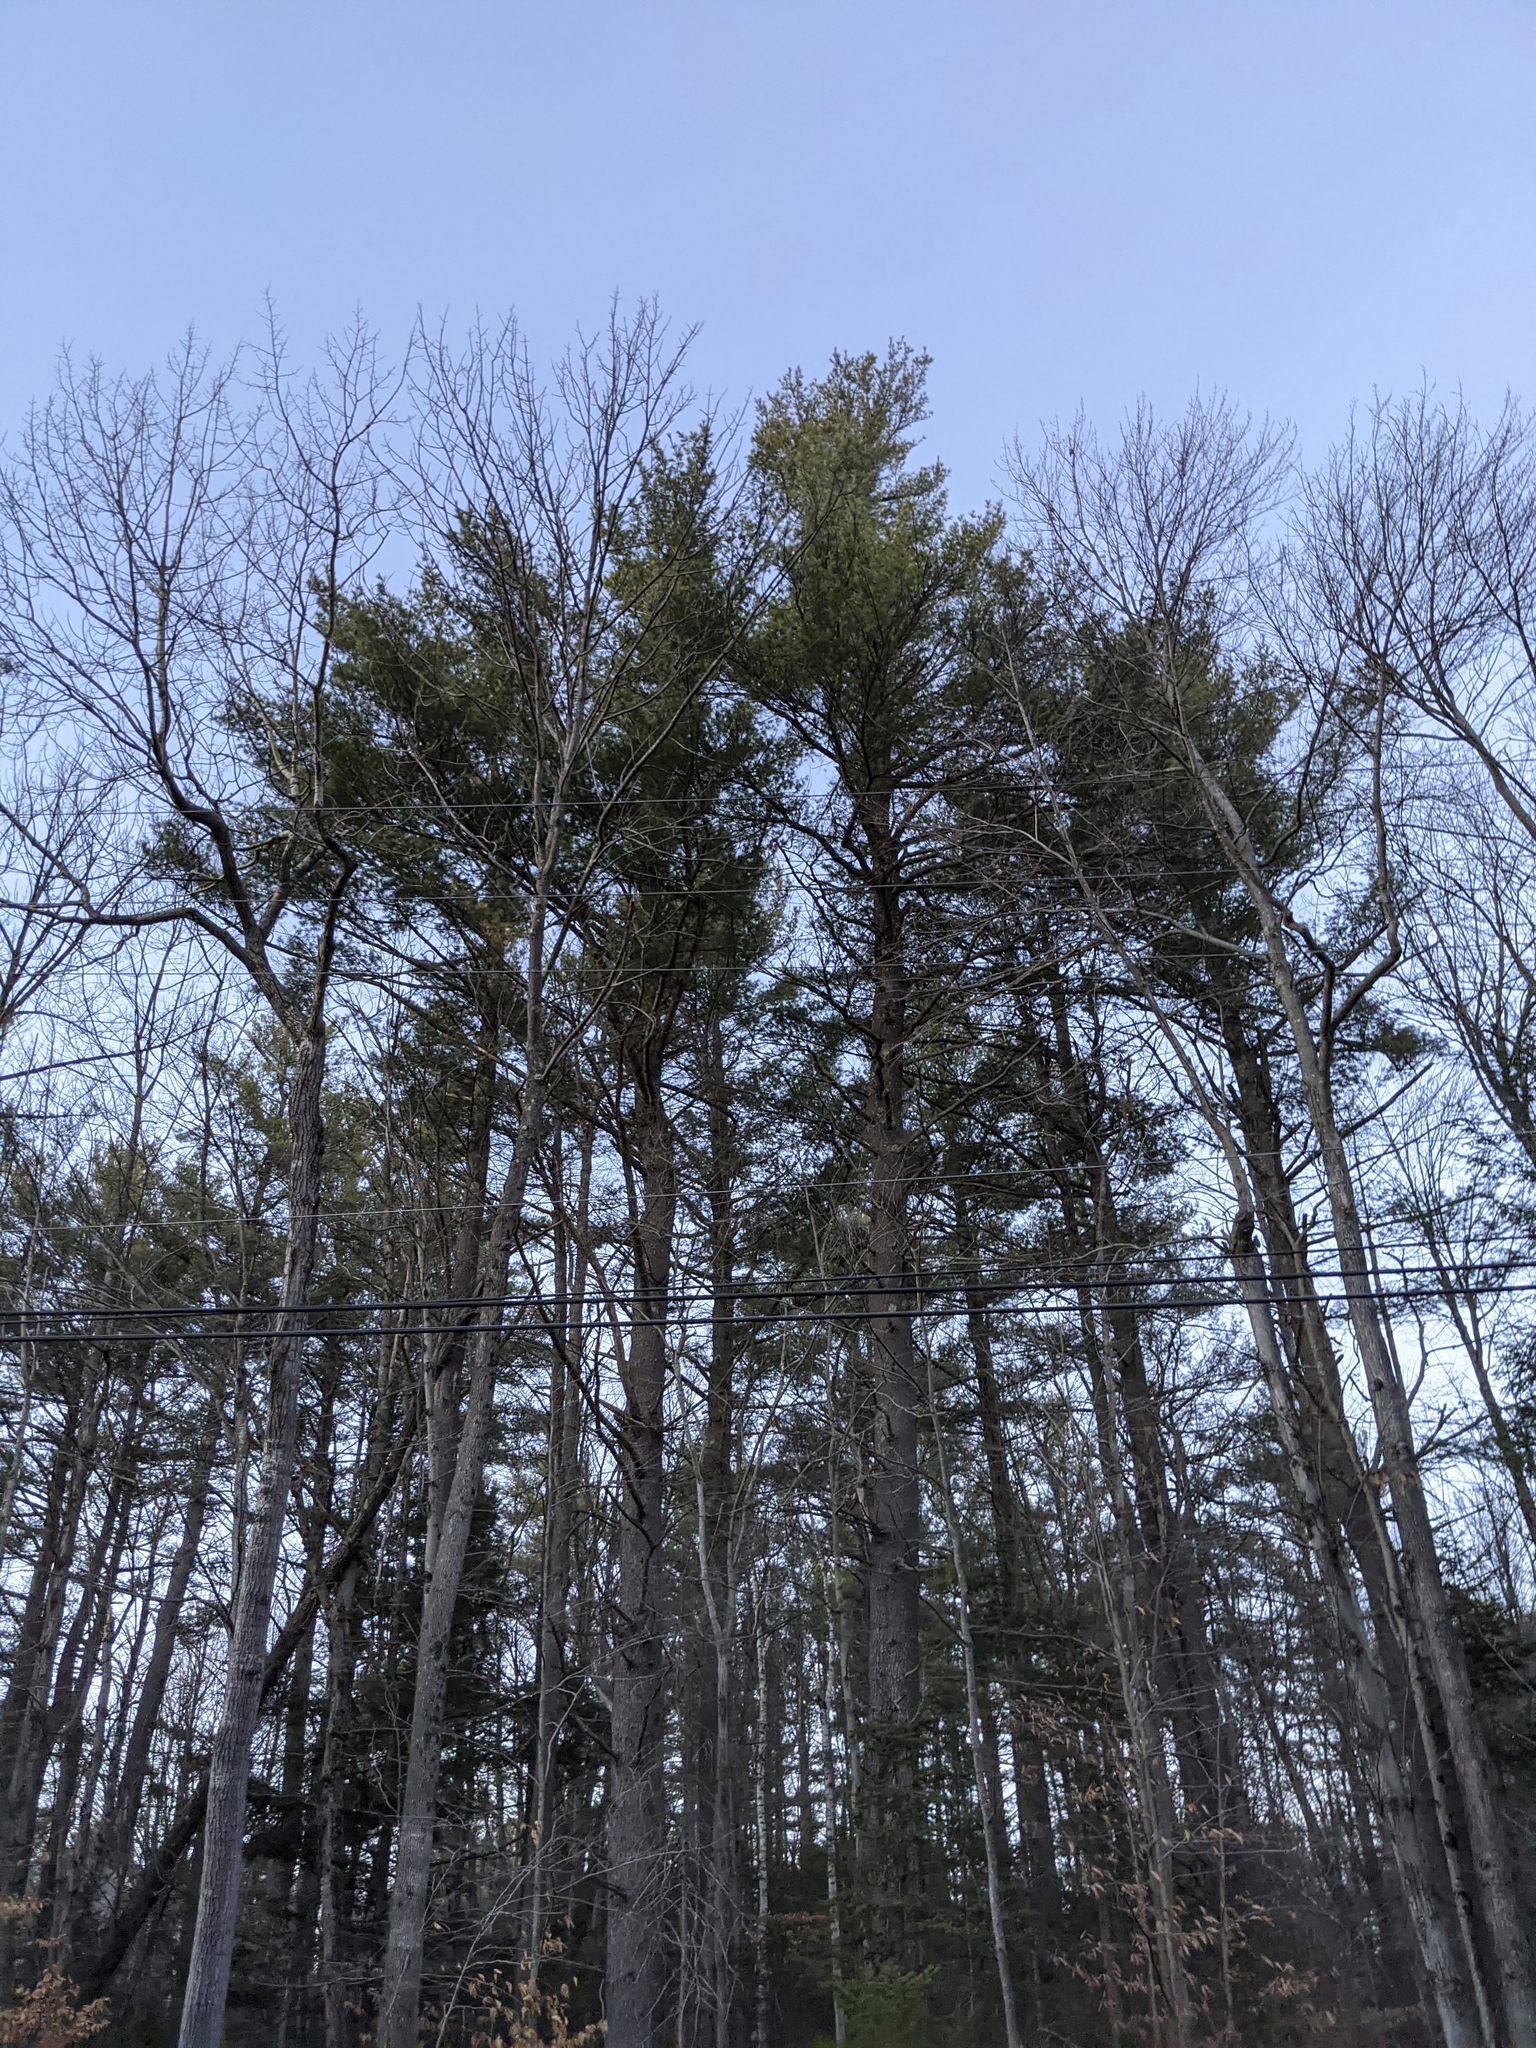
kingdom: Plantae
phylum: Tracheophyta
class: Pinopsida
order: Pinales
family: Pinaceae
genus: Pinus
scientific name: Pinus strobus
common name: Weymouth pine
